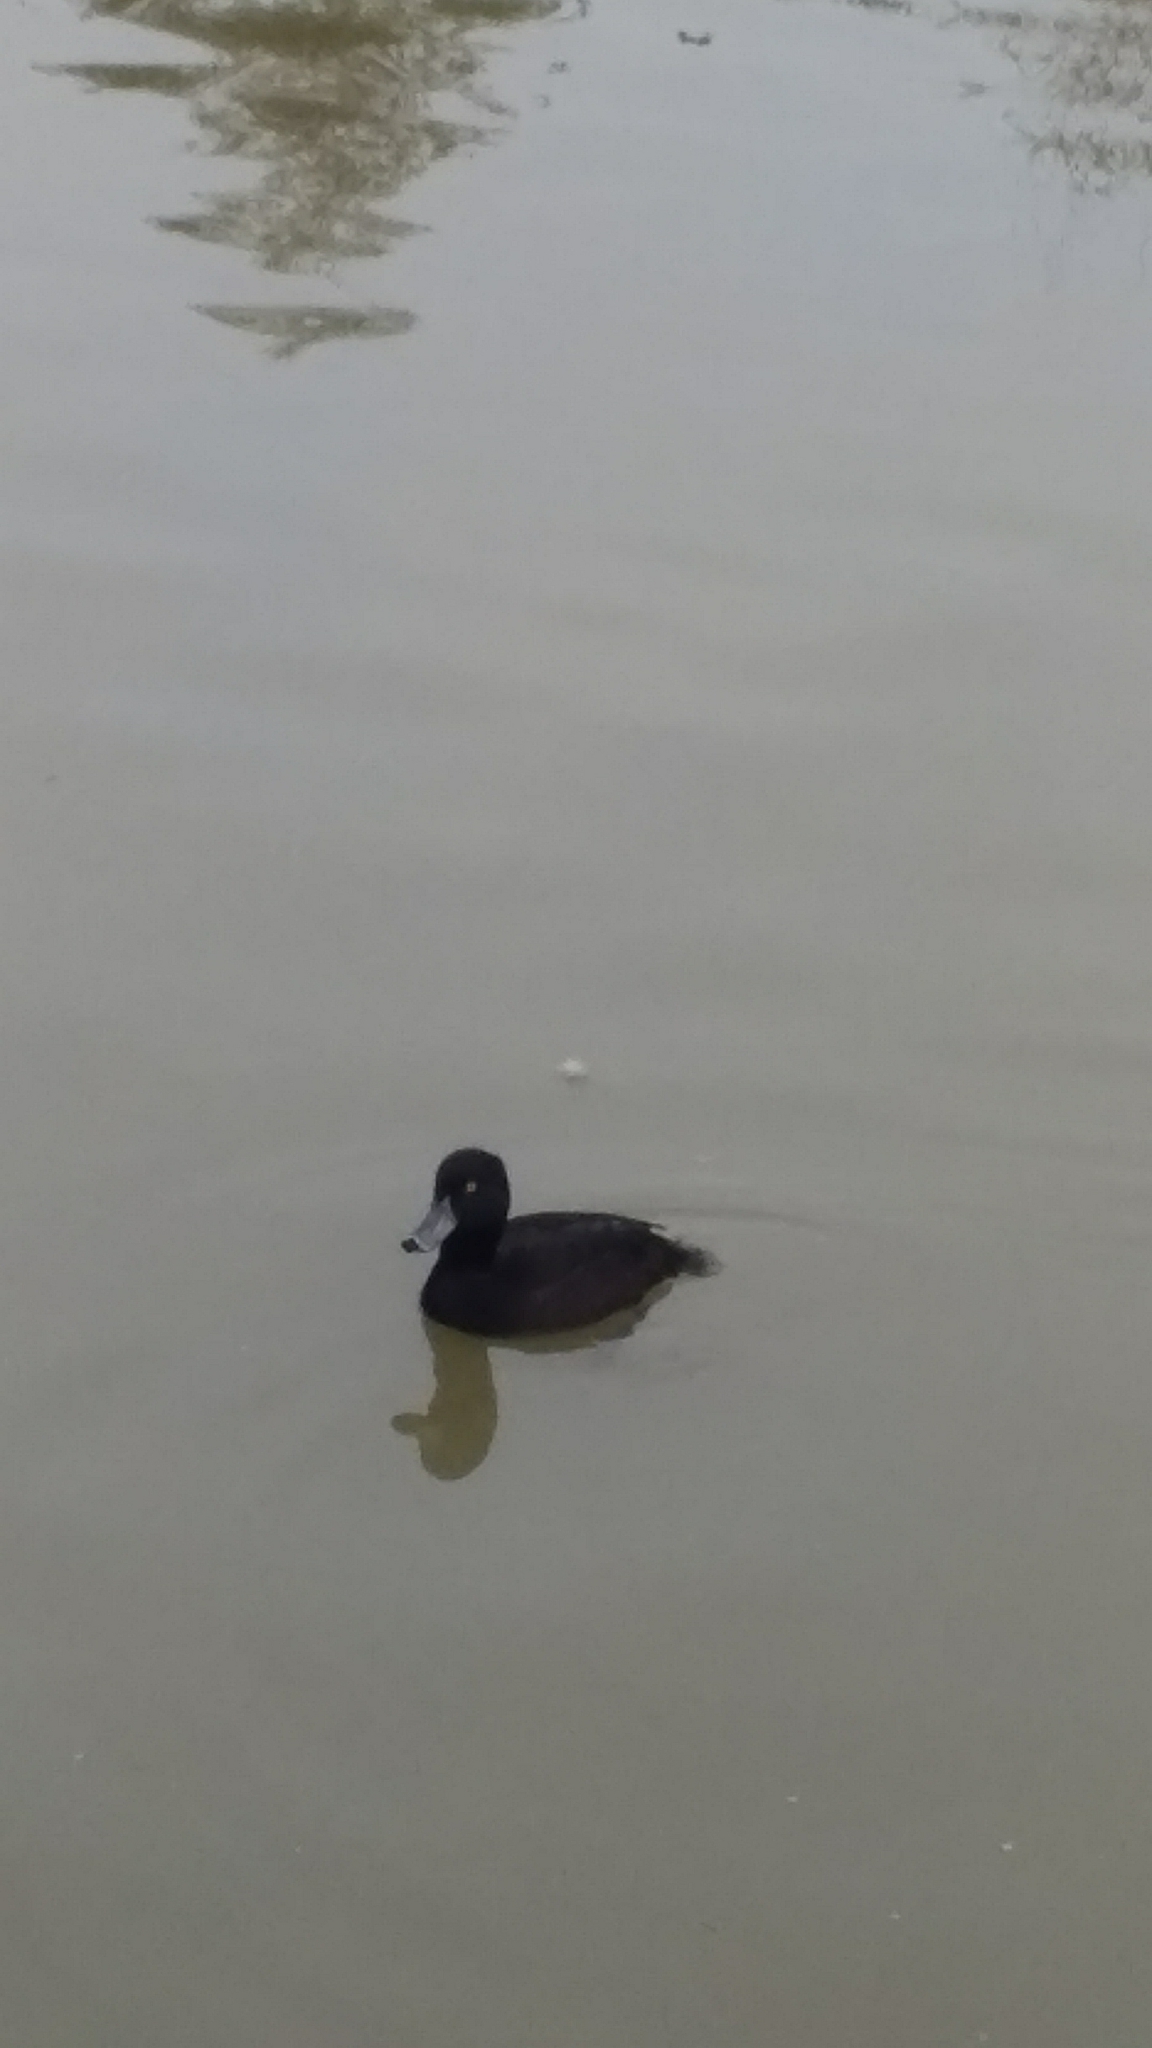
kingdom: Animalia
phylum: Chordata
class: Aves
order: Anseriformes
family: Anatidae
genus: Aythya
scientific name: Aythya novaeseelandiae
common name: New zealand scaup
